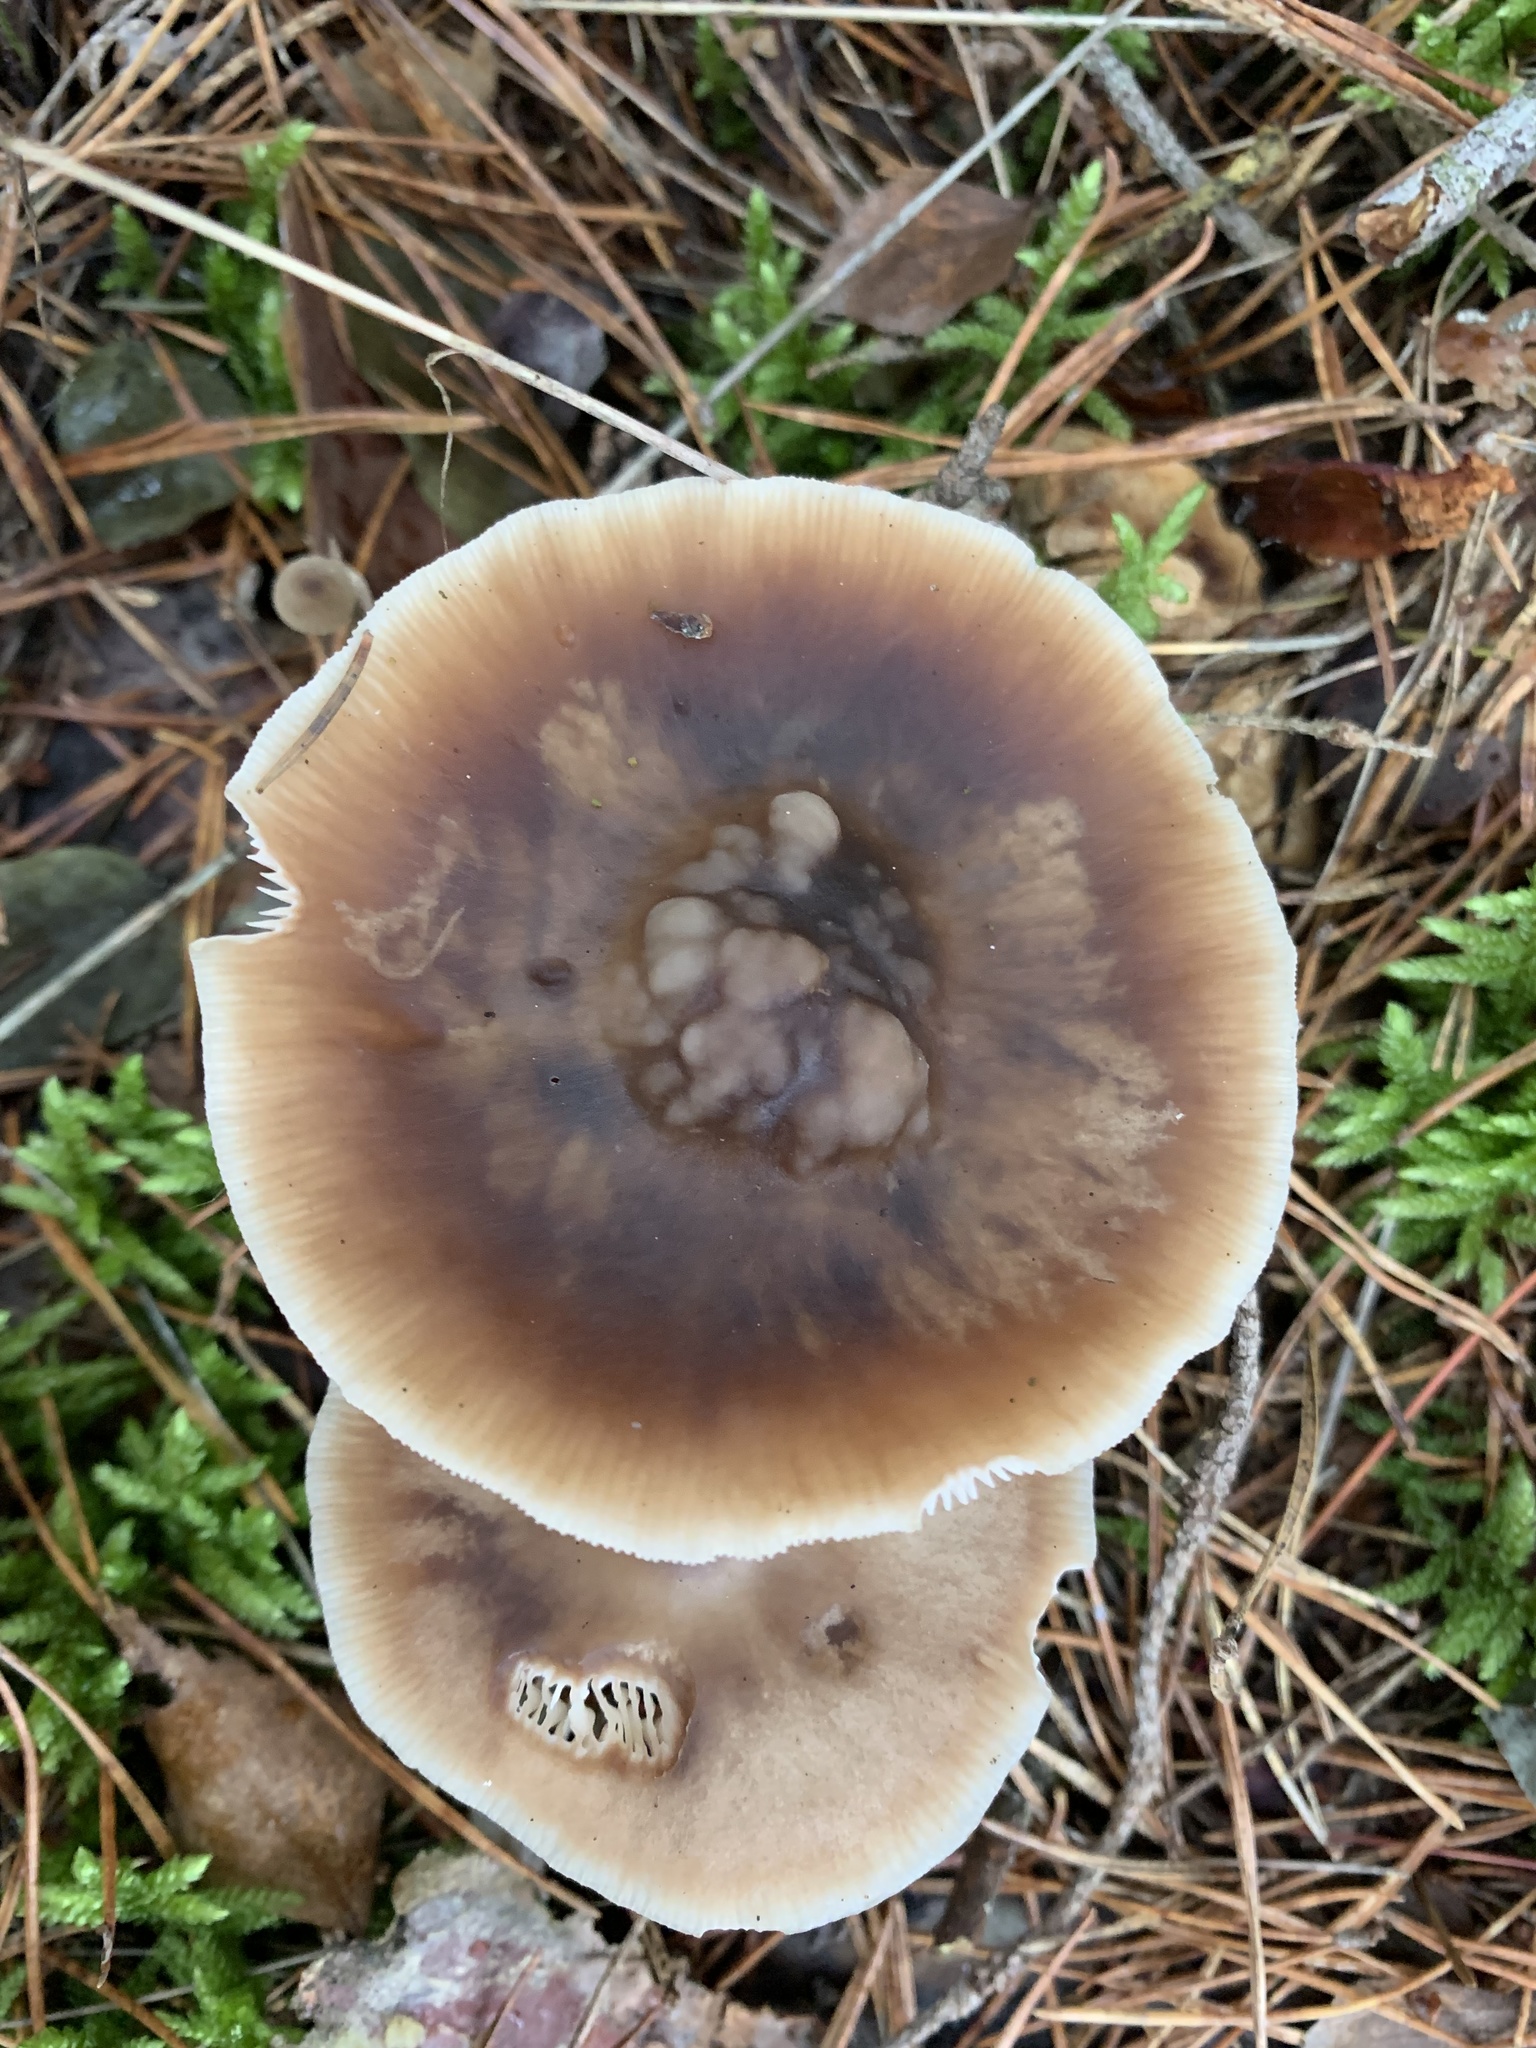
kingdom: Fungi
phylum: Basidiomycota
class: Agaricomycetes
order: Agaricales
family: Omphalotaceae
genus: Rhodocollybia
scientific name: Rhodocollybia butyracea
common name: Butter cap
